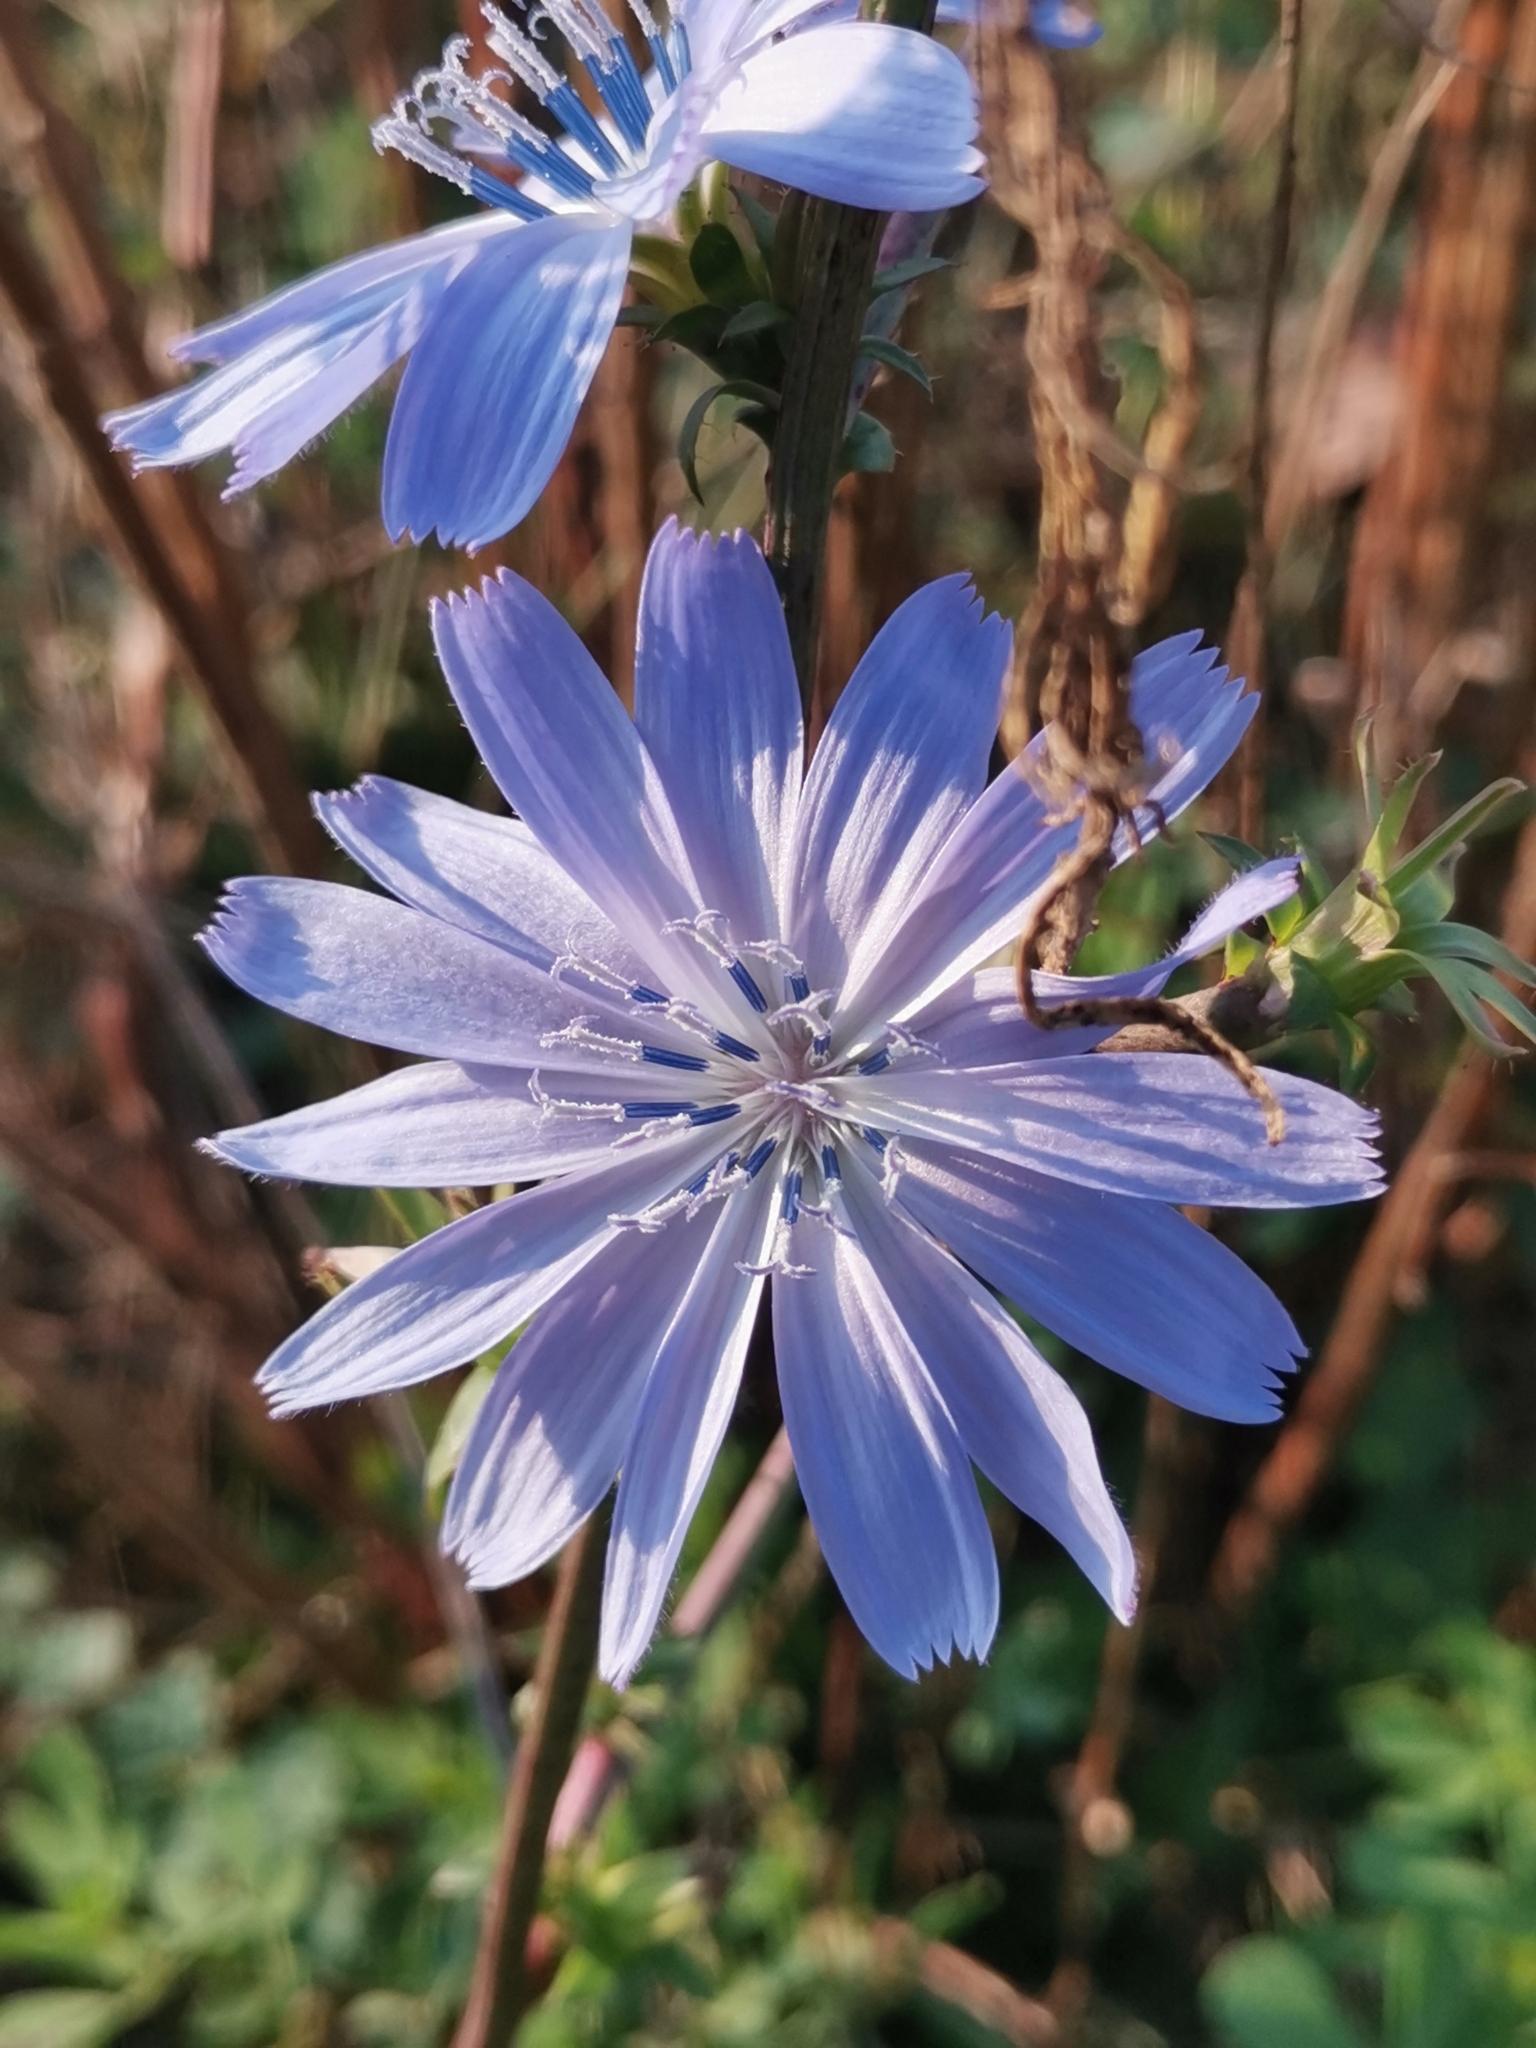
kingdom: Plantae
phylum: Tracheophyta
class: Magnoliopsida
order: Asterales
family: Asteraceae
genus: Cichorium
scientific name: Cichorium intybus
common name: Chicory
